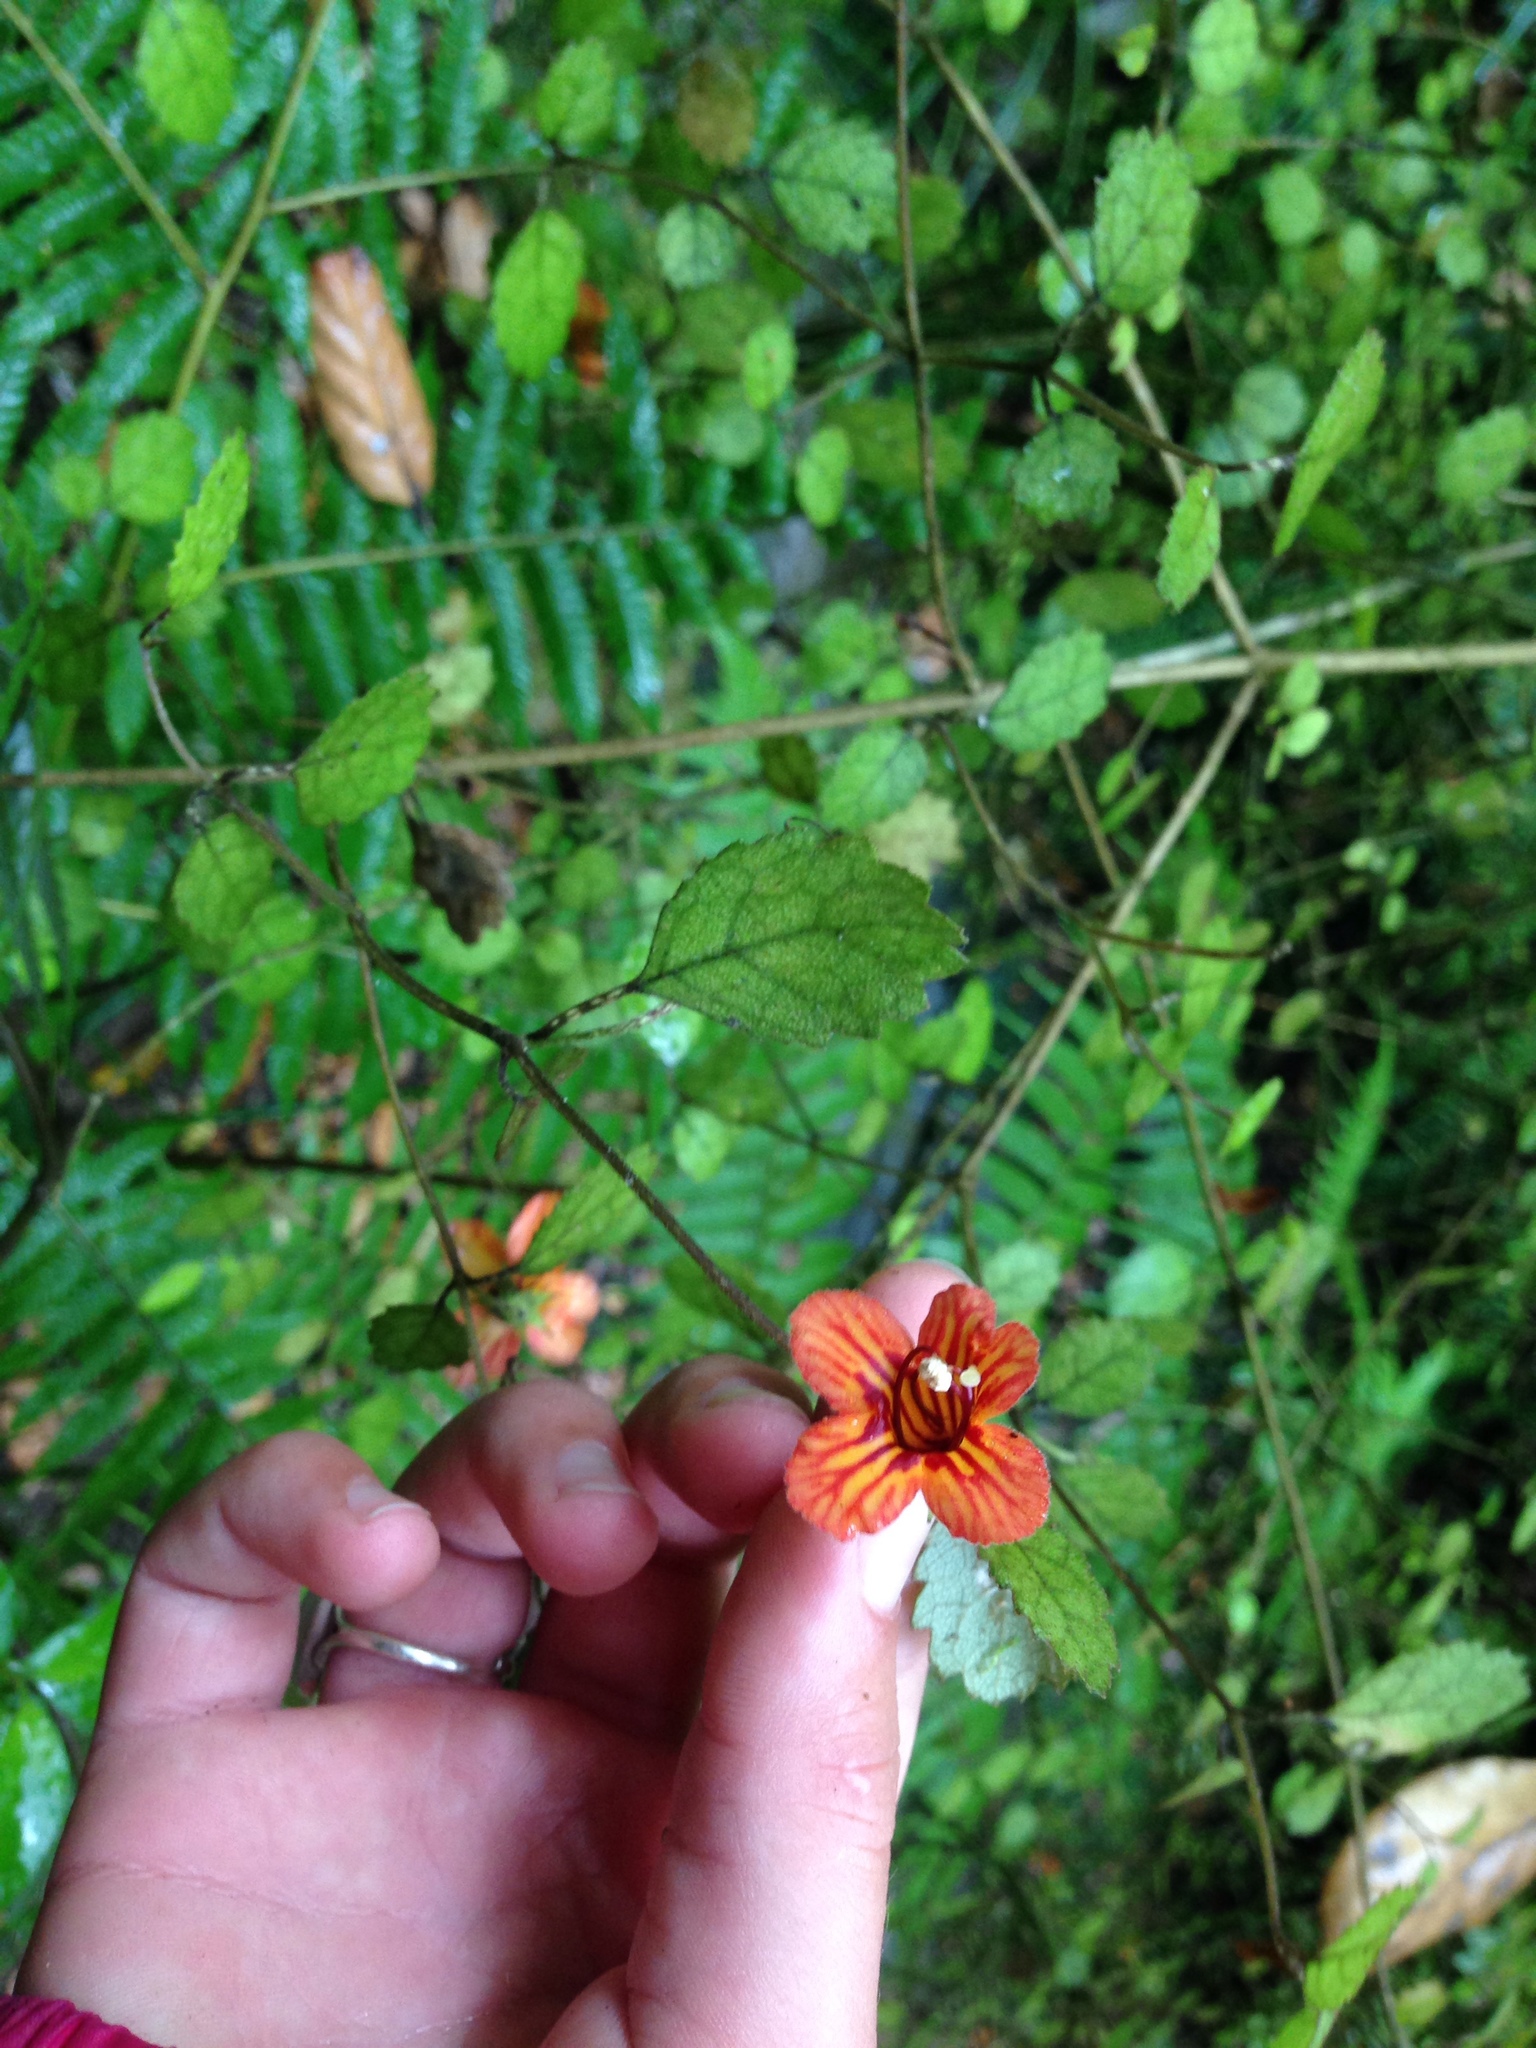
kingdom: Plantae
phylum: Tracheophyta
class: Magnoliopsida
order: Lamiales
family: Gesneriaceae
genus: Rhabdothamnus
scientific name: Rhabdothamnus solandri
